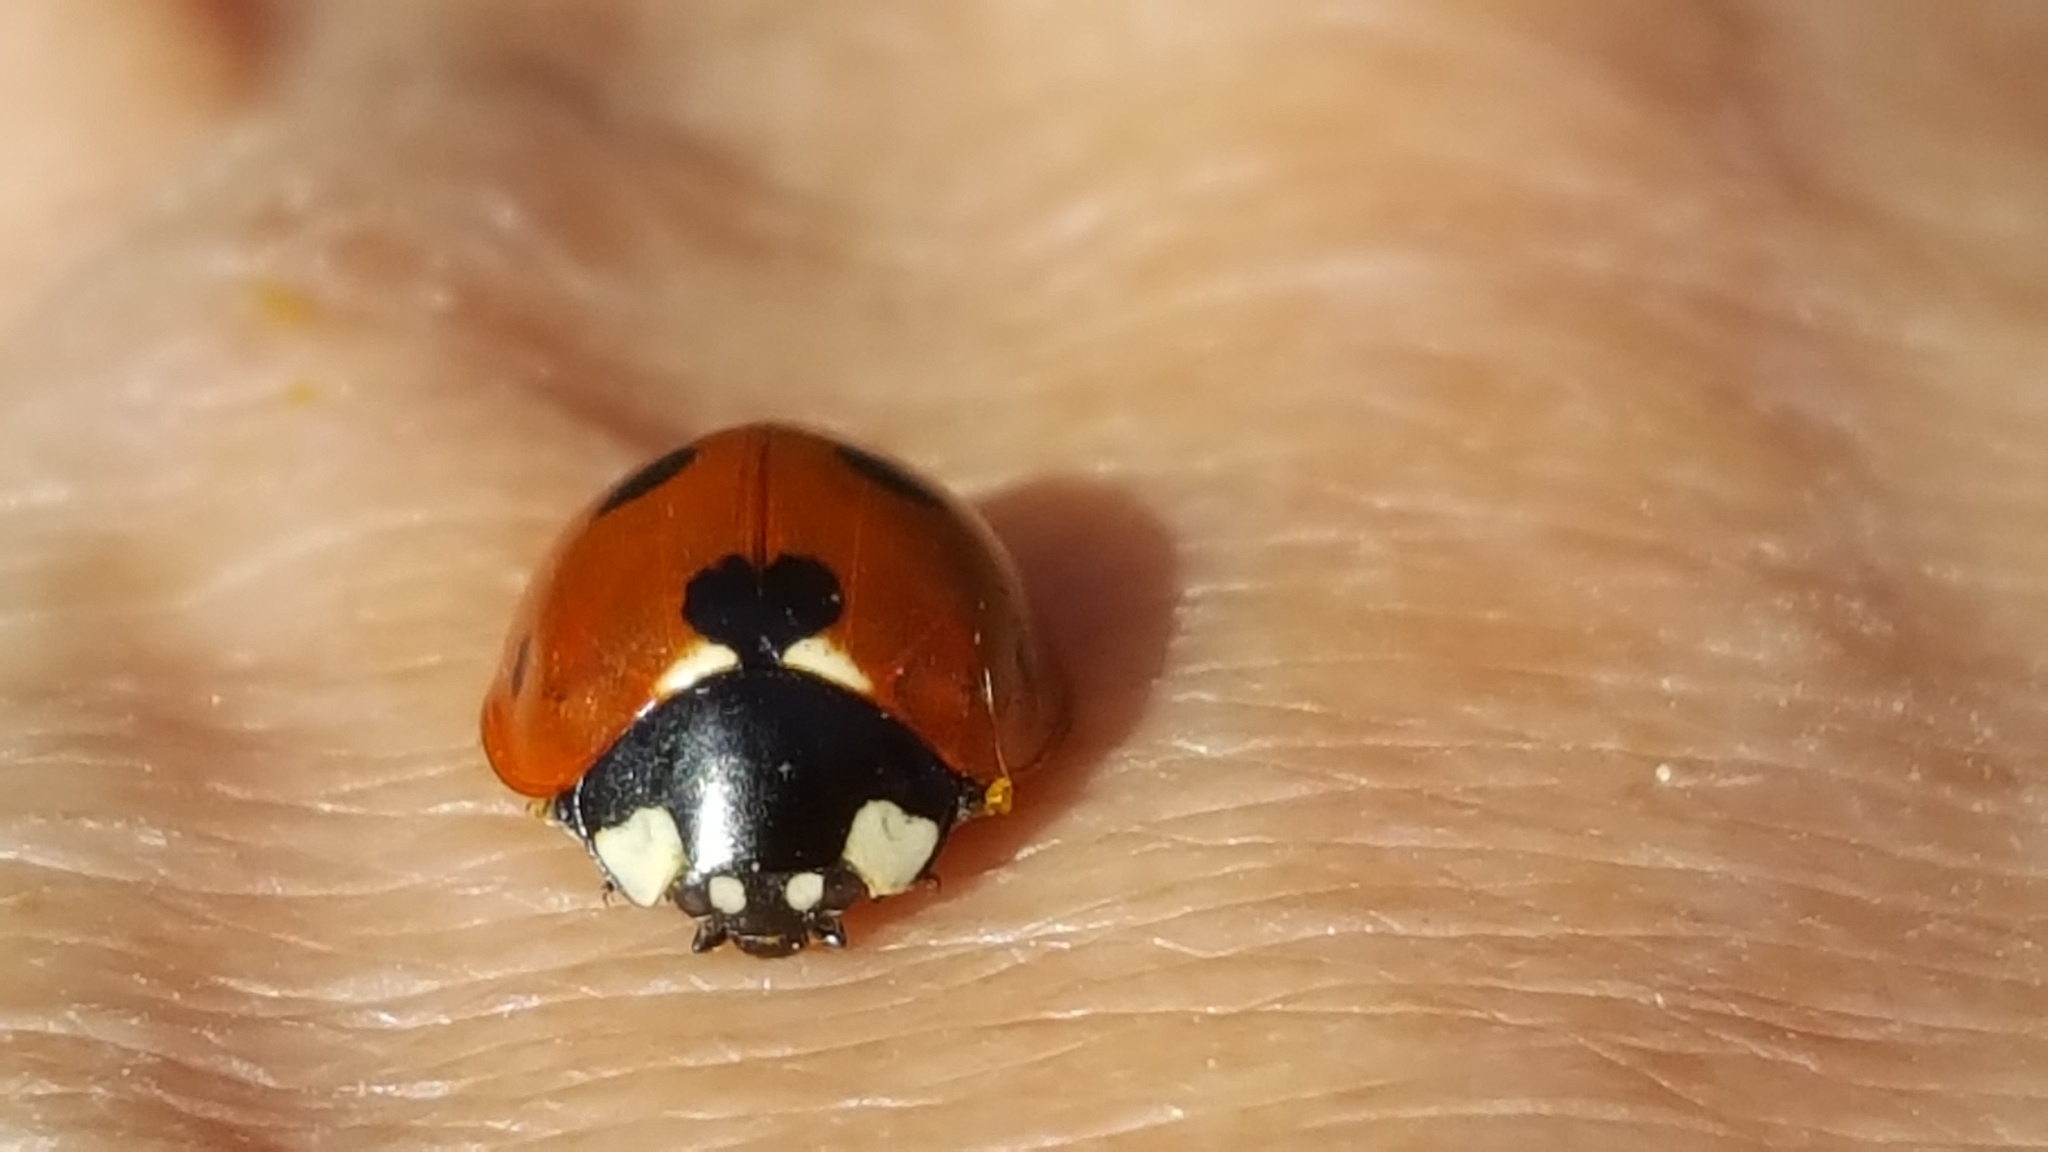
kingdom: Animalia
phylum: Arthropoda
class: Insecta
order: Coleoptera
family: Coccinellidae
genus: Coccinella
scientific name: Coccinella septempunctata
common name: Sevenspotted lady beetle
